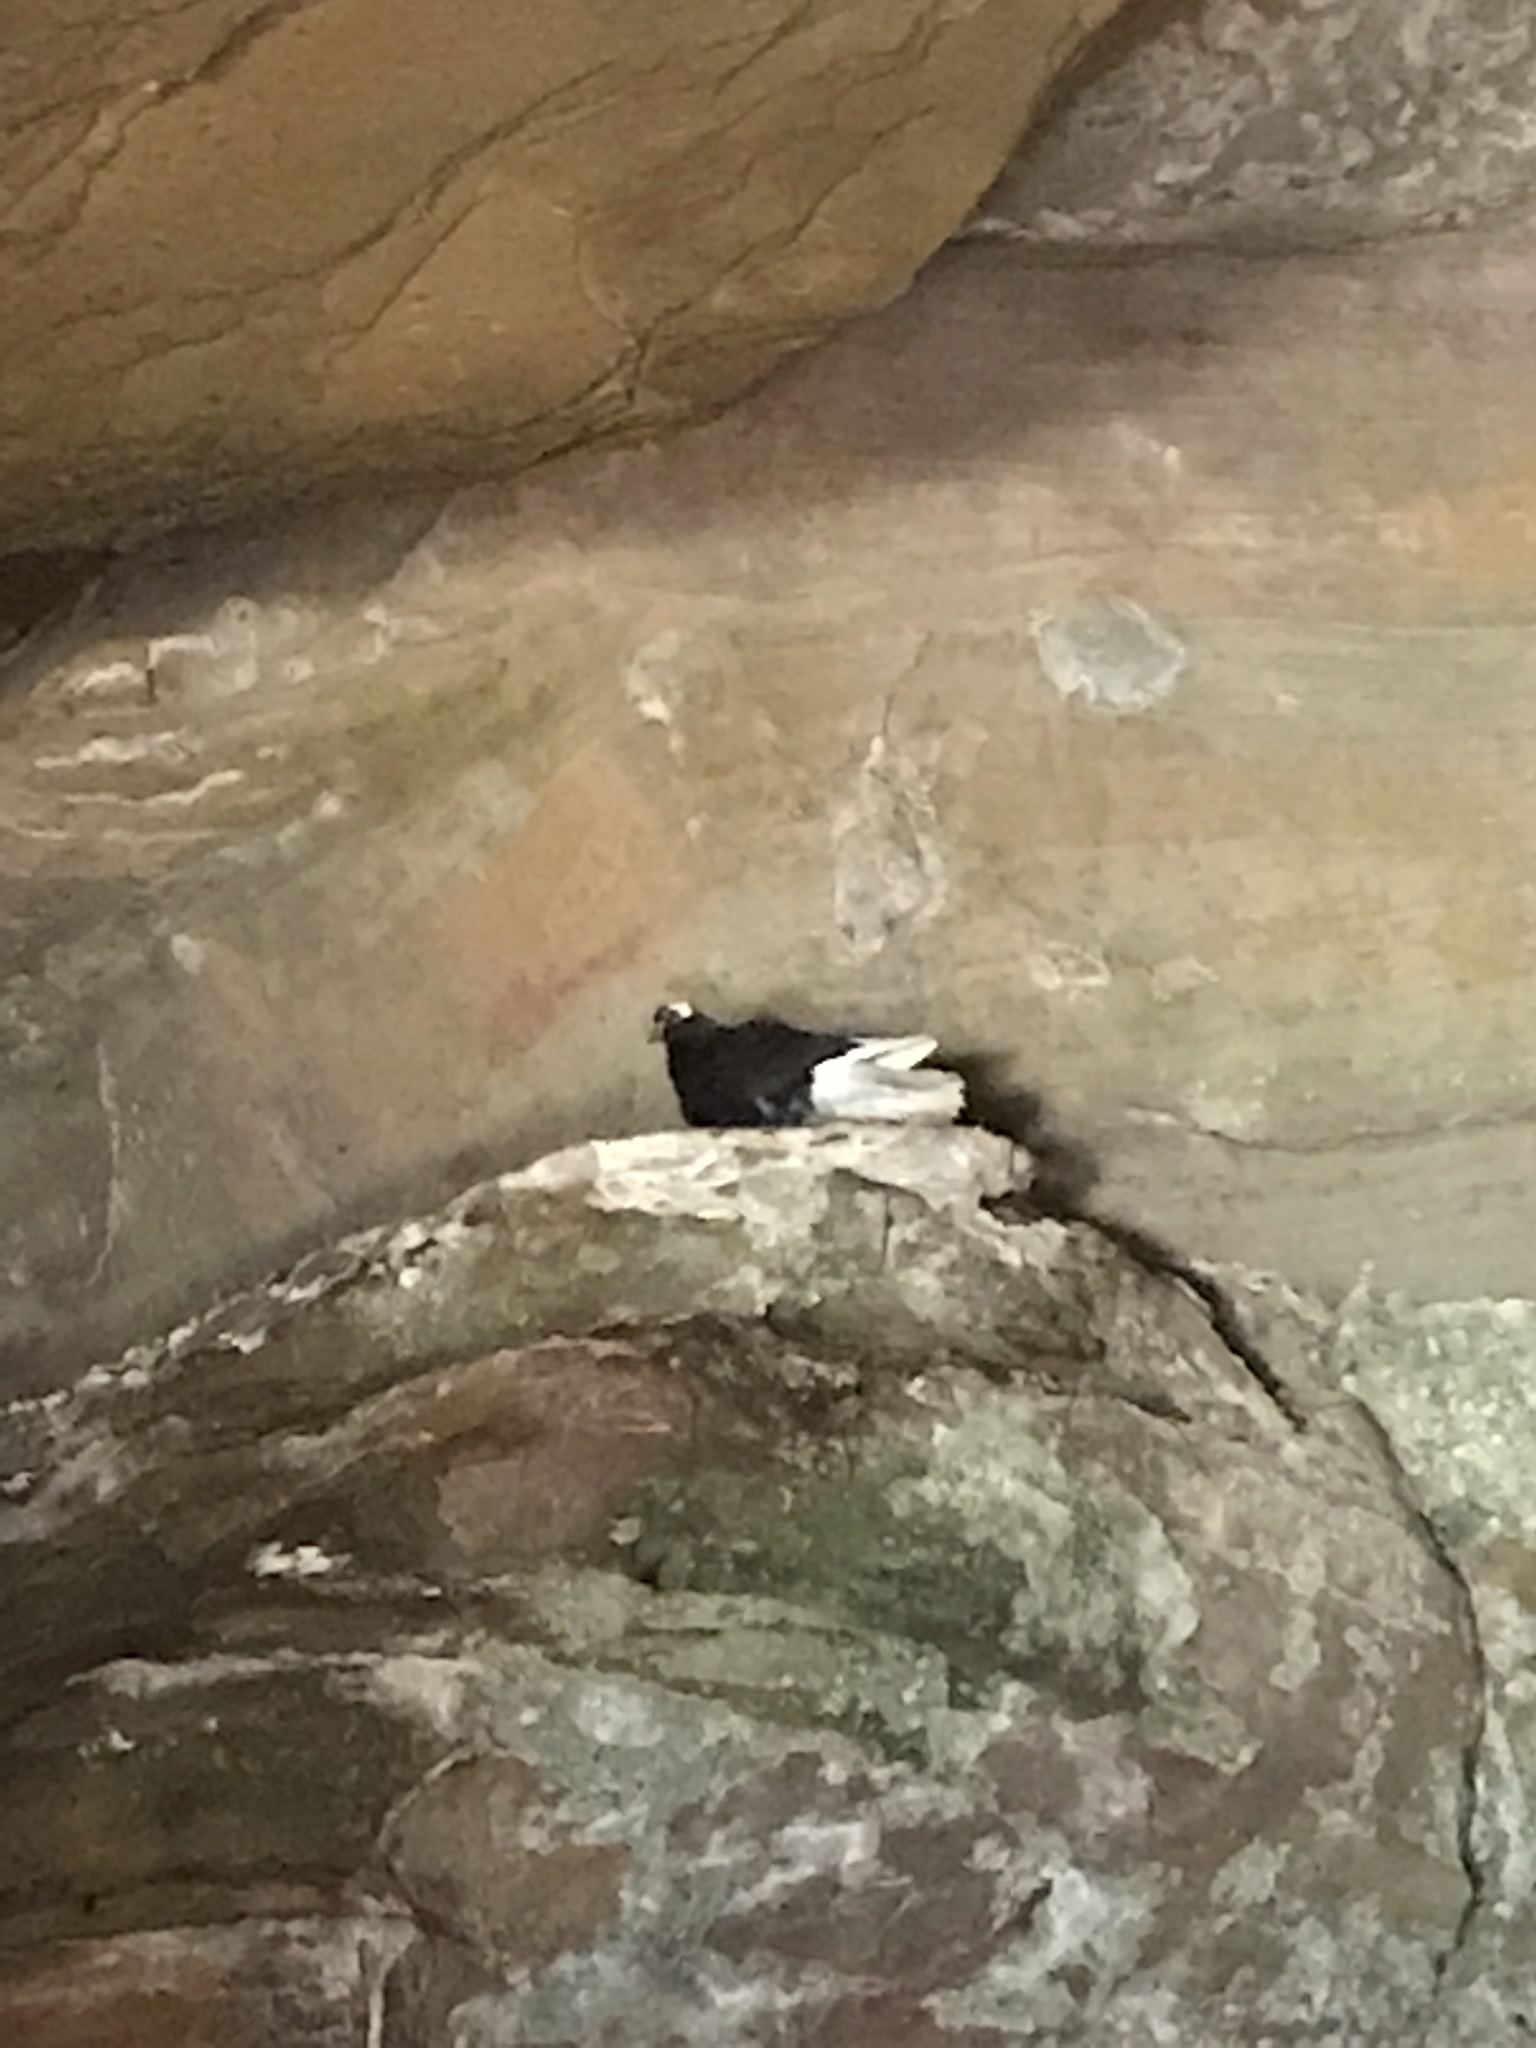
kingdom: Animalia
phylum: Chordata
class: Aves
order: Columbiformes
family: Columbidae
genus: Columba
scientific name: Columba livia
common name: Rock pigeon
